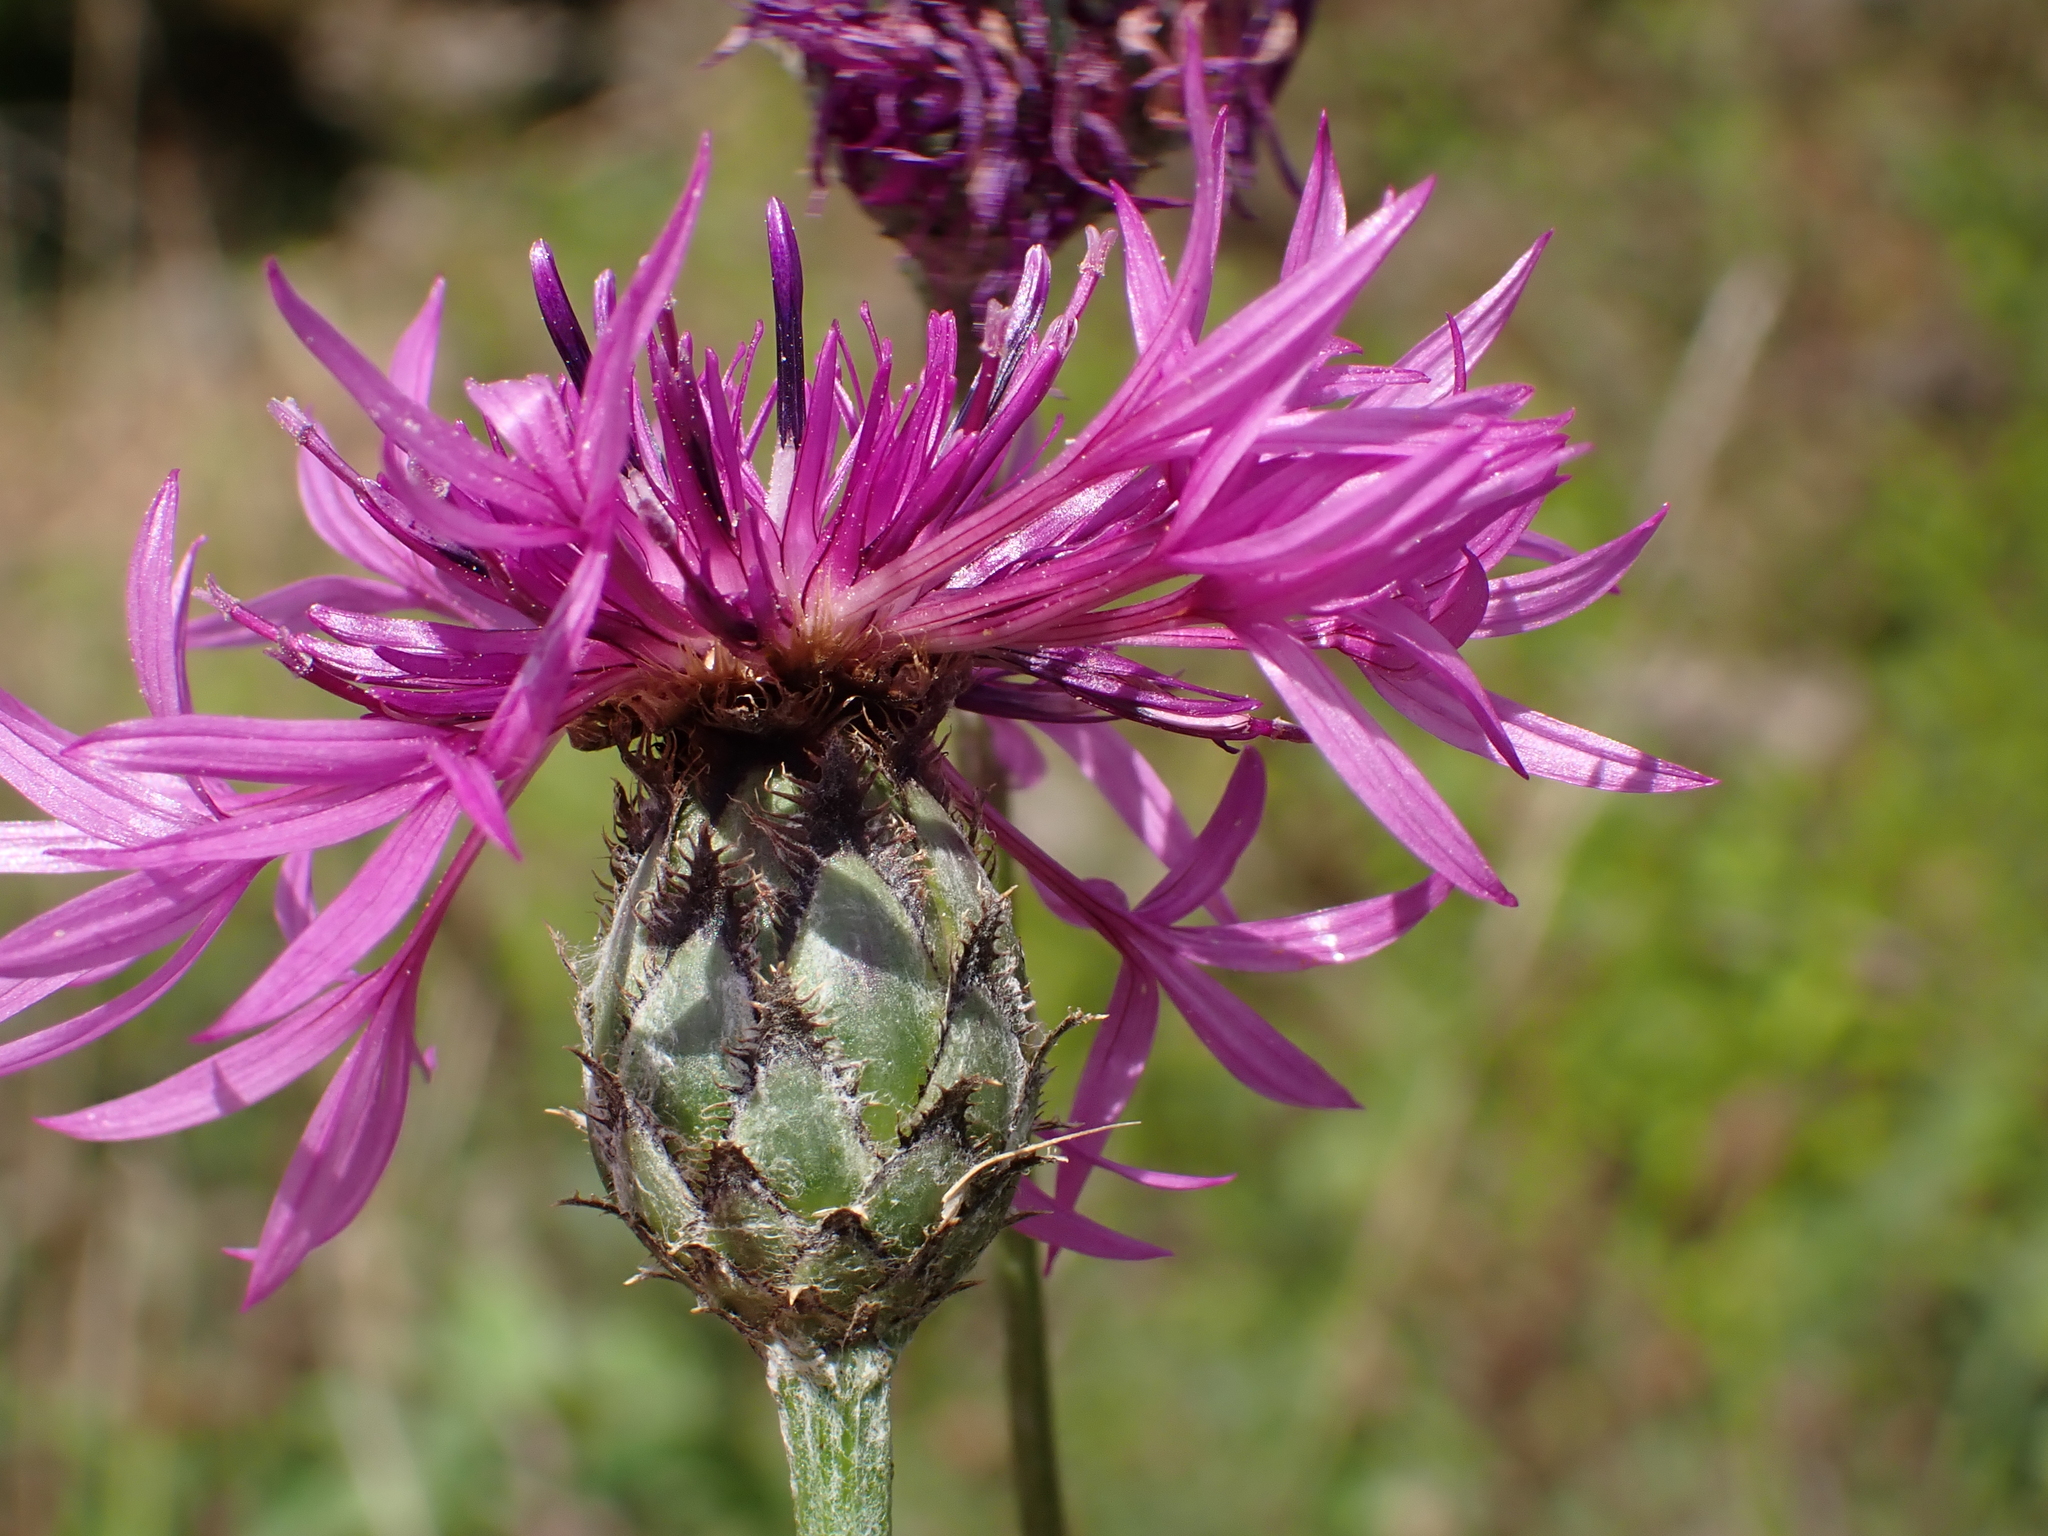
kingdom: Plantae
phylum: Tracheophyta
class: Magnoliopsida
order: Asterales
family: Asteraceae
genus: Centaurea
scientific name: Centaurea scabiosa
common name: Greater knapweed
